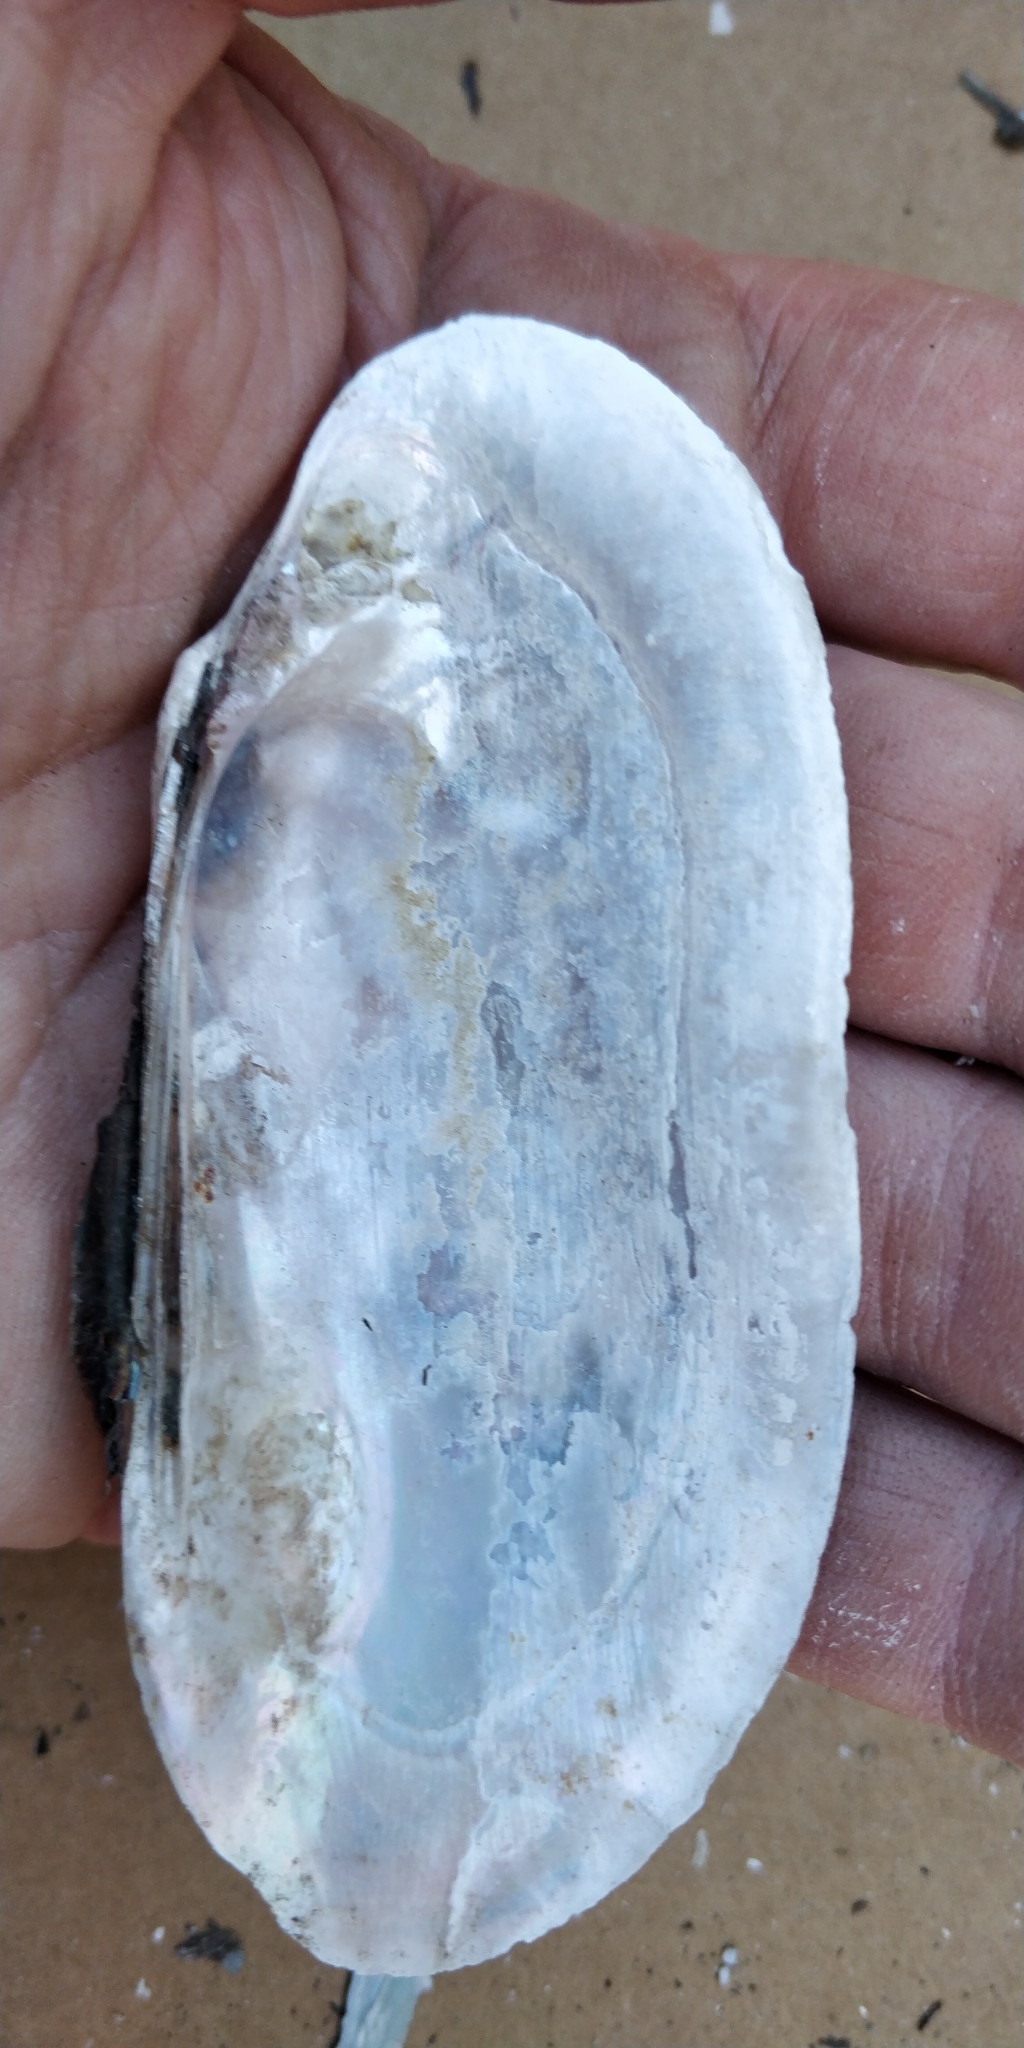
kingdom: Animalia
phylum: Mollusca
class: Bivalvia
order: Unionida
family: Unionidae
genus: Ligumia
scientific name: Ligumia recta
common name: Black sandshell
